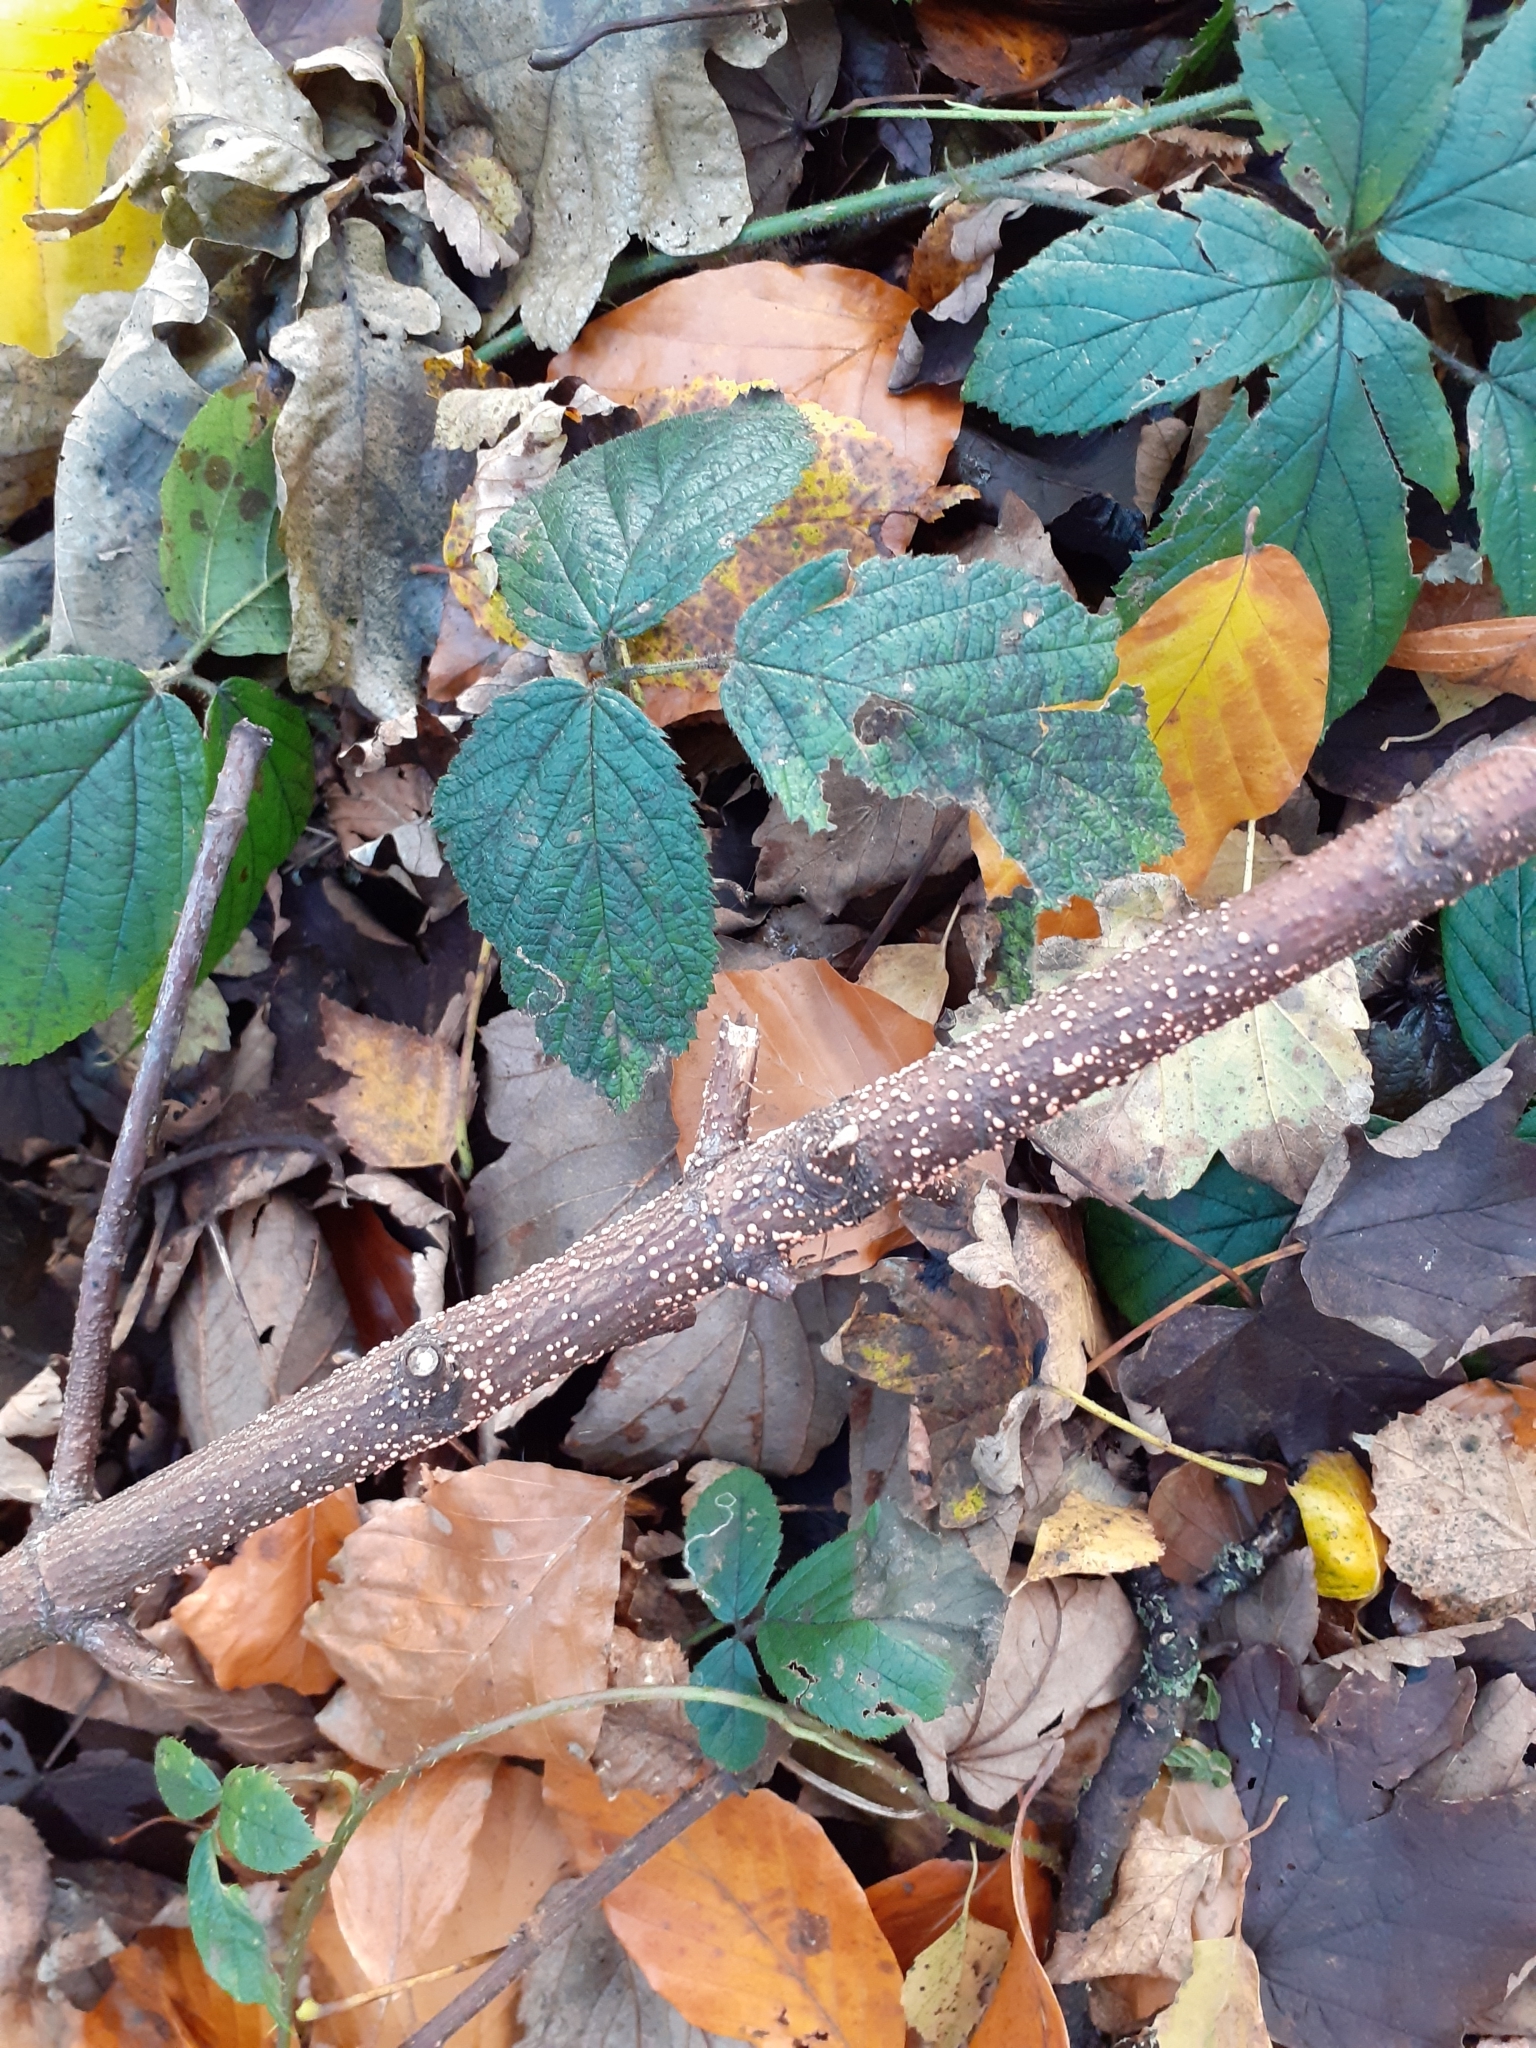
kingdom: Fungi
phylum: Ascomycota
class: Sordariomycetes
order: Hypocreales
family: Nectriaceae
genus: Nectria
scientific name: Nectria cinnabarina
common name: Coral spot
